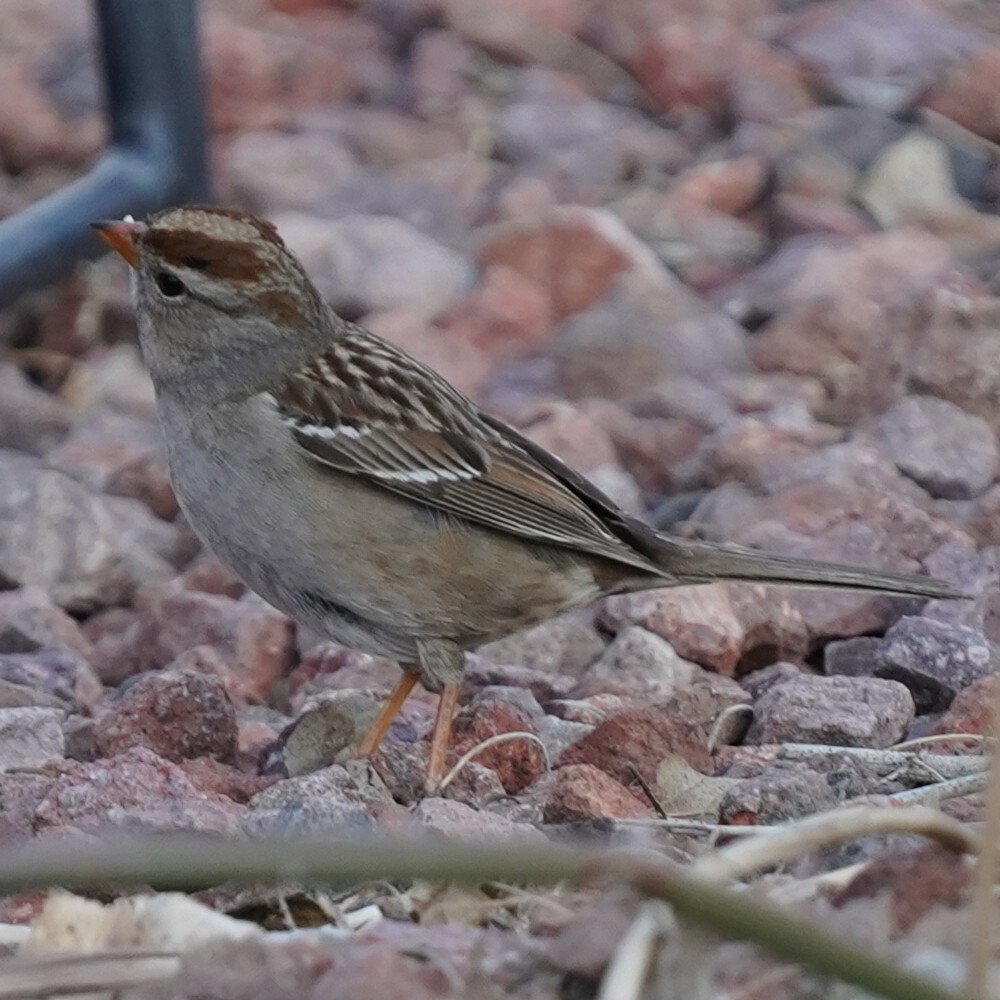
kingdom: Animalia
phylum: Chordata
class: Aves
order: Passeriformes
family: Passerellidae
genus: Zonotrichia
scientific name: Zonotrichia leucophrys
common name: White-crowned sparrow
